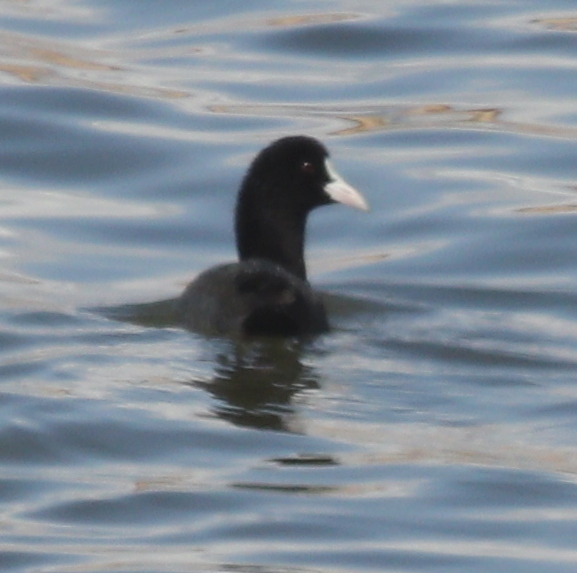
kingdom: Animalia
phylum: Chordata
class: Aves
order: Gruiformes
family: Rallidae
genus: Fulica
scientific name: Fulica atra
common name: Eurasian coot
